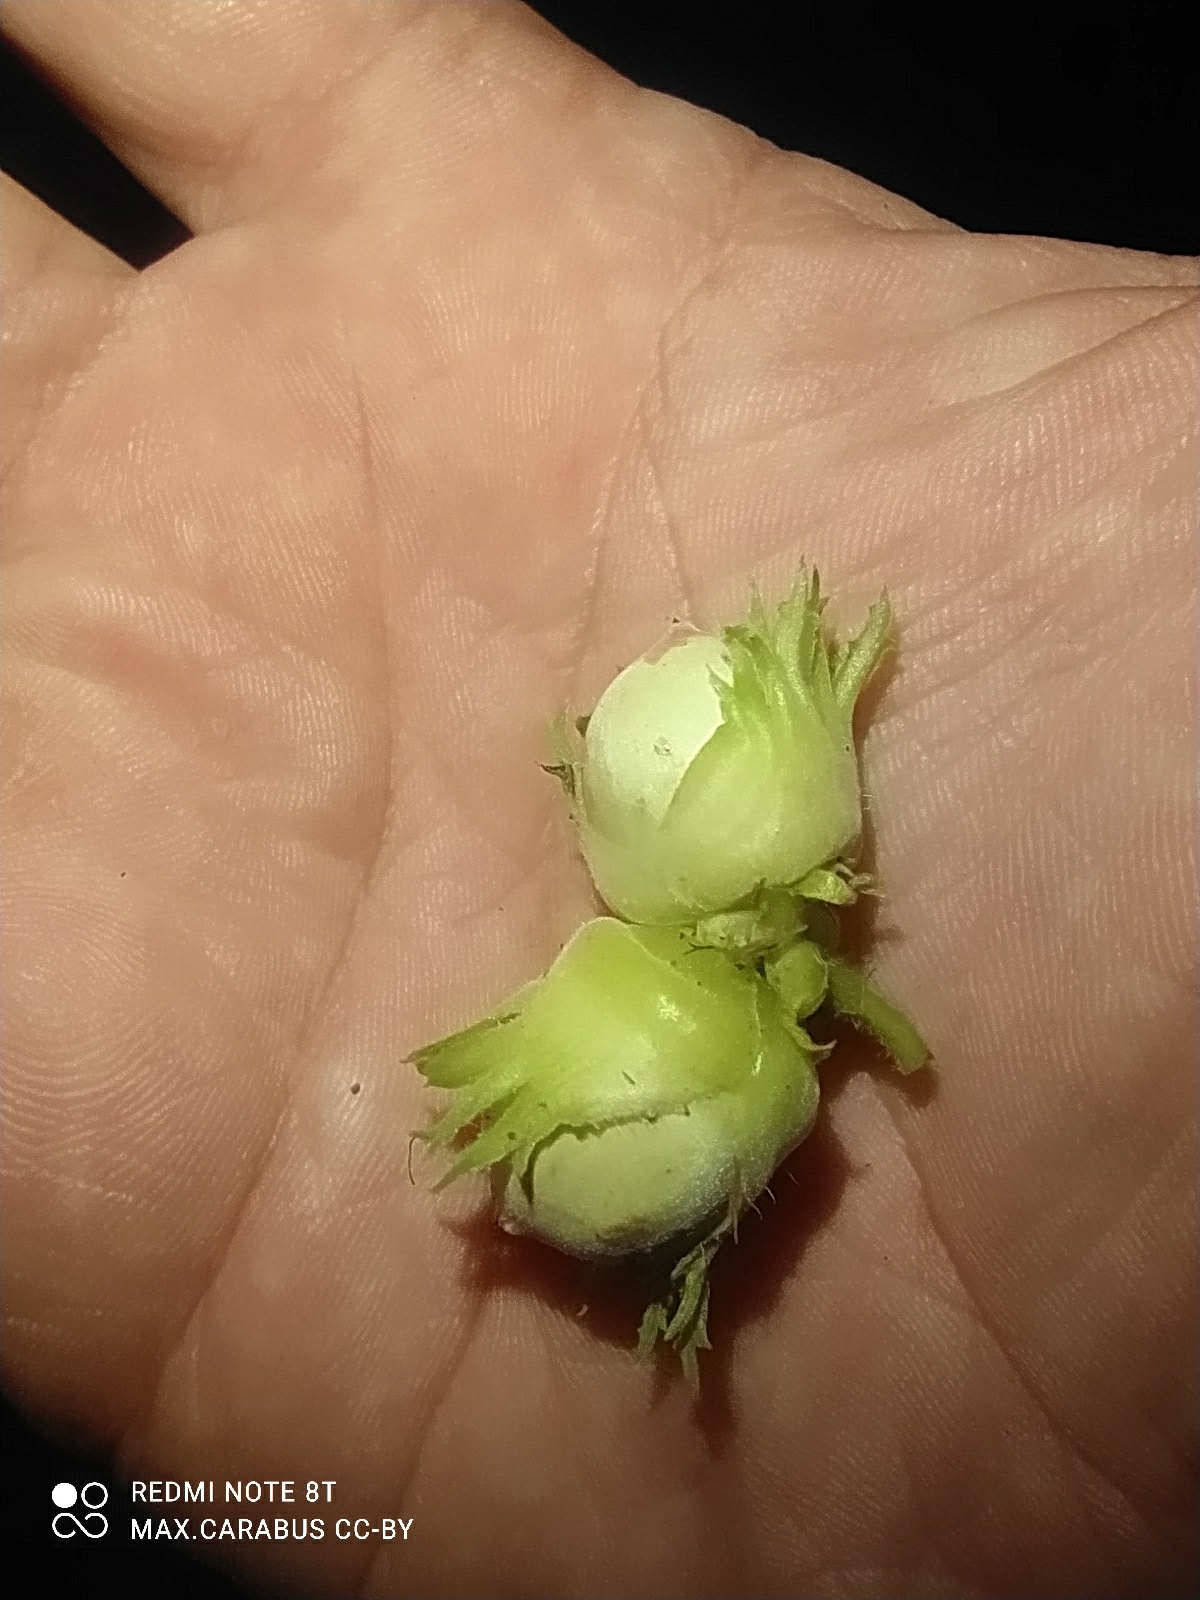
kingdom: Plantae
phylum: Tracheophyta
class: Magnoliopsida
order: Fagales
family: Betulaceae
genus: Corylus
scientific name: Corylus avellana
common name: European hazel
